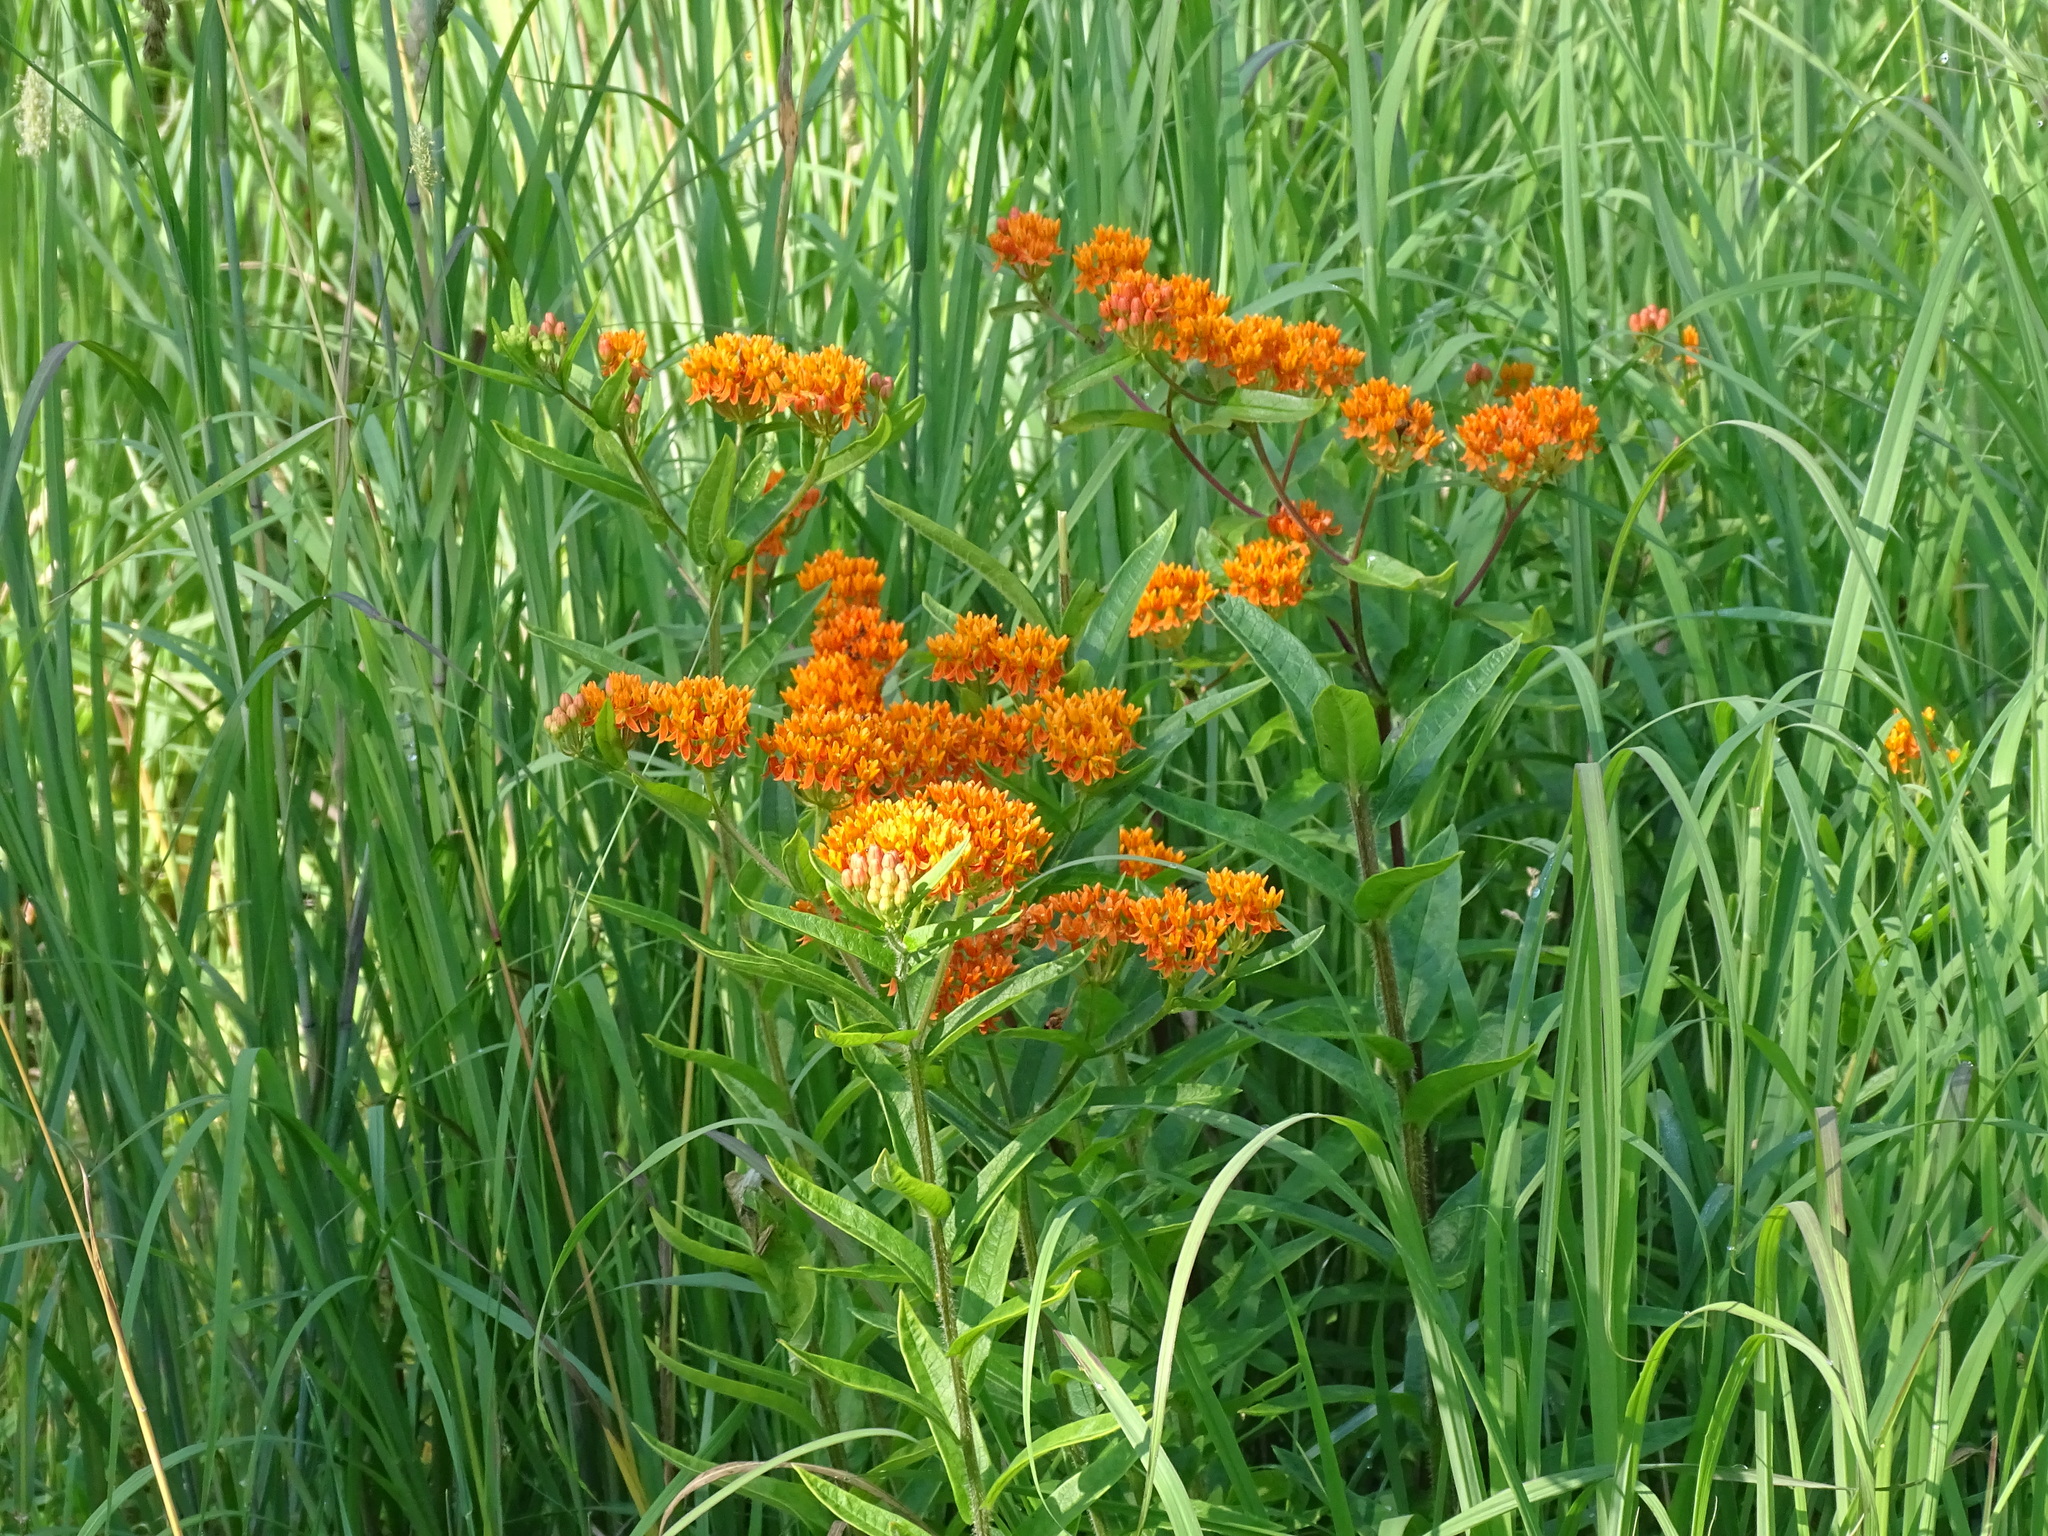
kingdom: Plantae
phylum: Tracheophyta
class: Magnoliopsida
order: Gentianales
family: Apocynaceae
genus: Asclepias
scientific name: Asclepias tuberosa
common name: Butterfly milkweed
